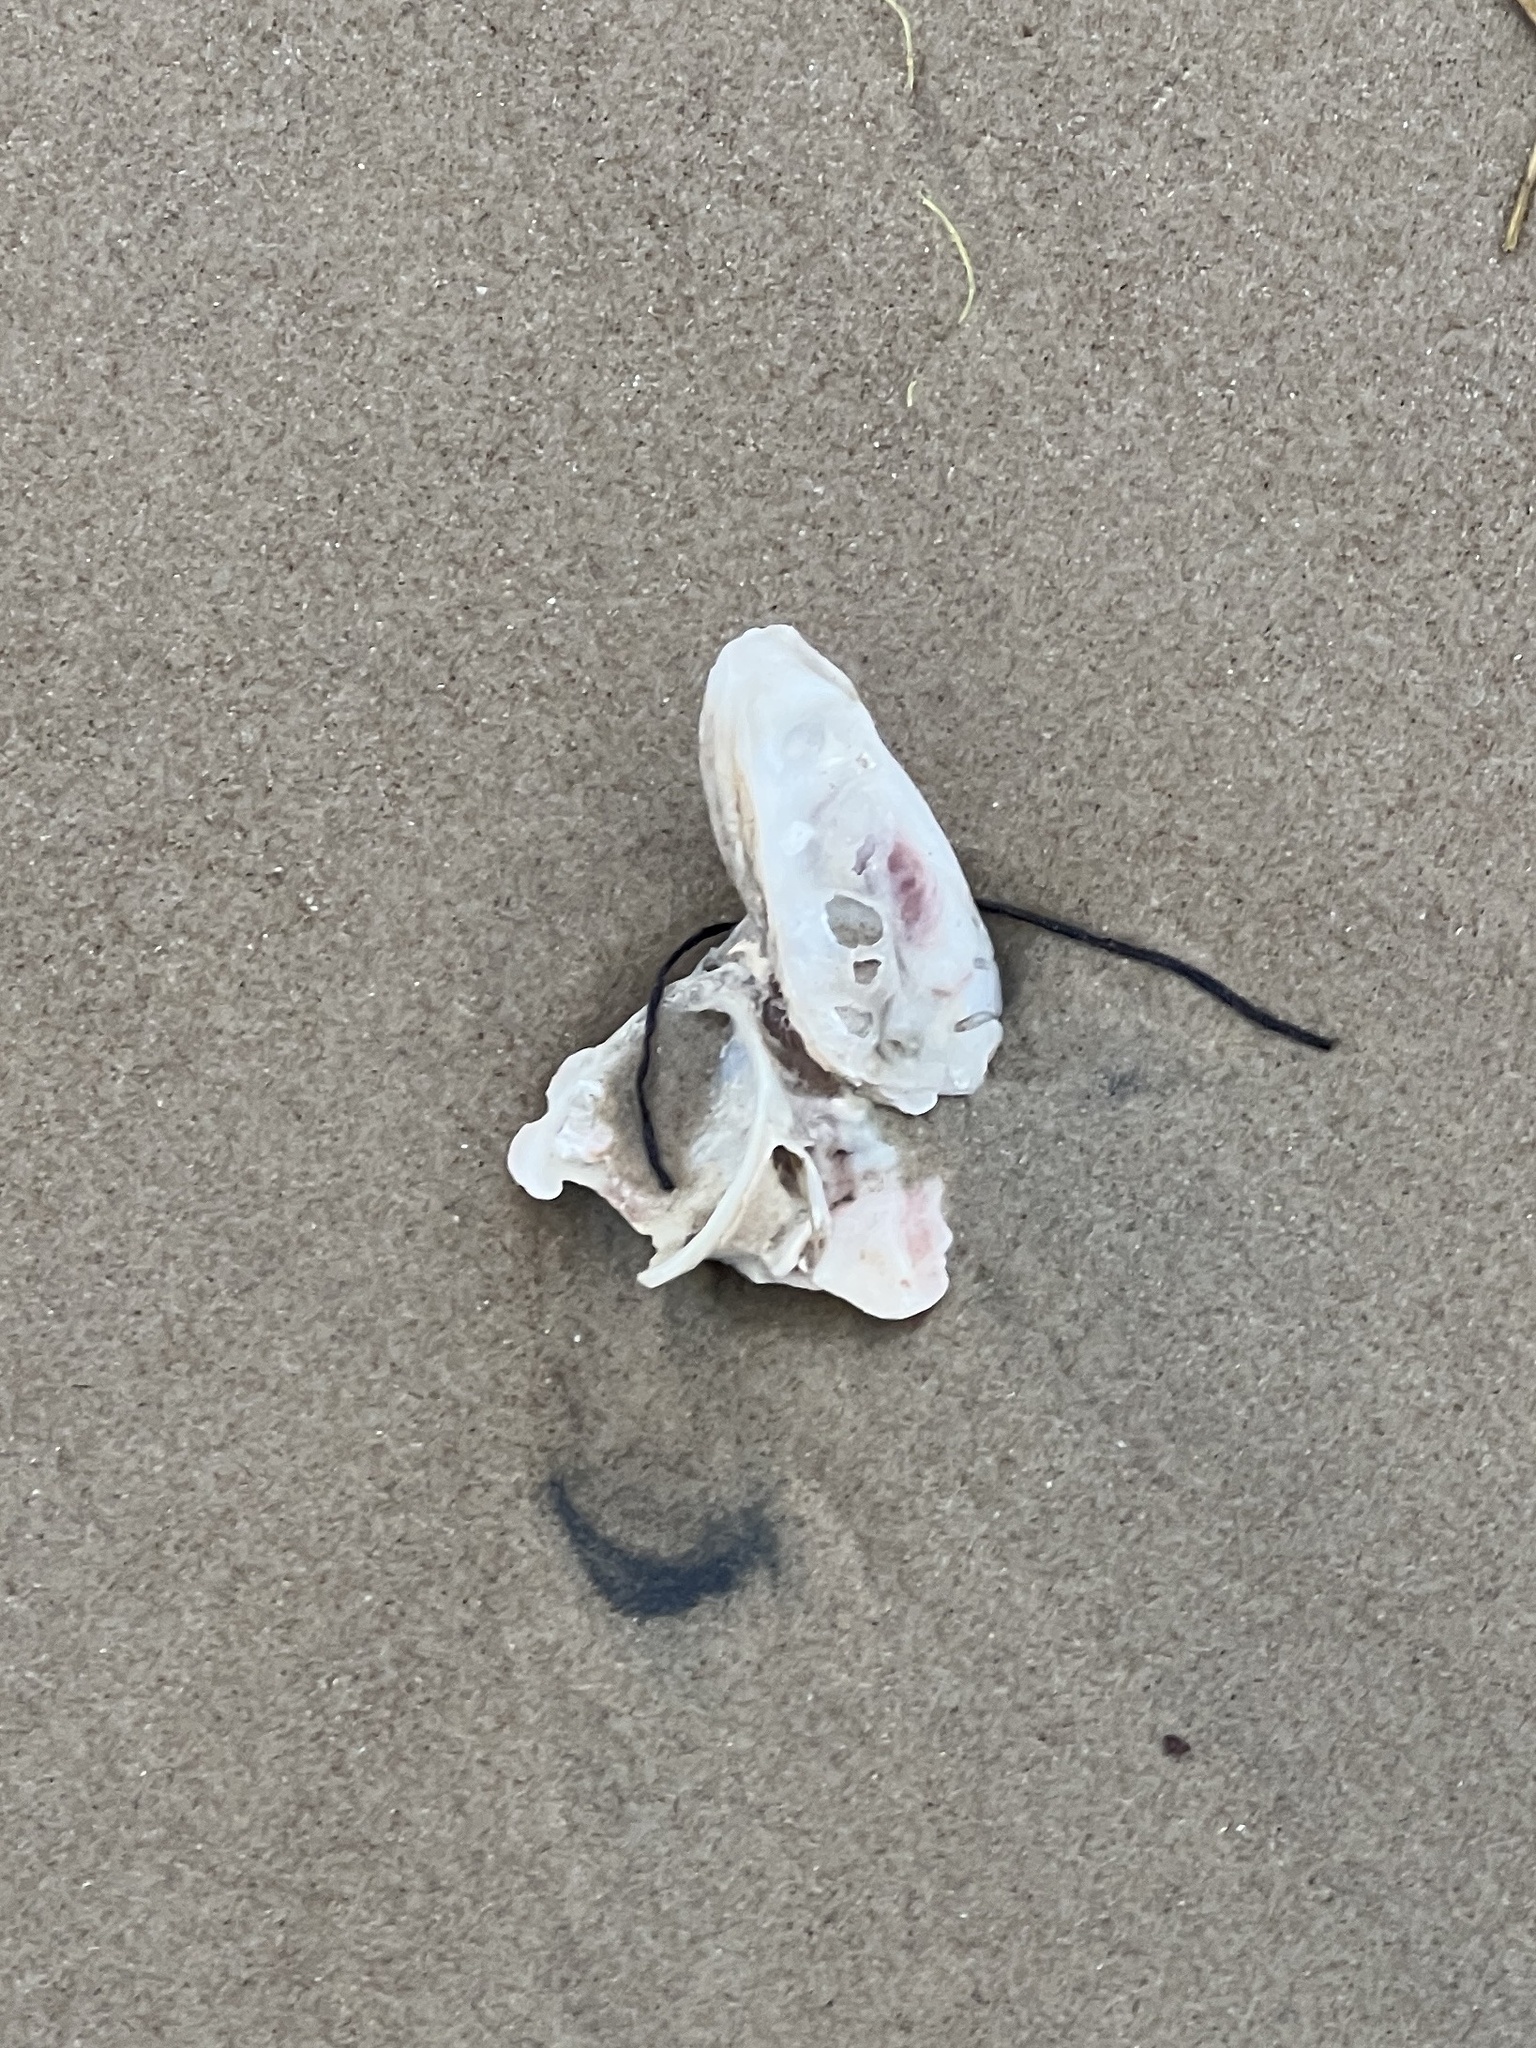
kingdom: Animalia
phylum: Mollusca
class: Bivalvia
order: Ostreida
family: Ostreidae
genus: Crassostrea
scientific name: Crassostrea virginica
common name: American oyster
